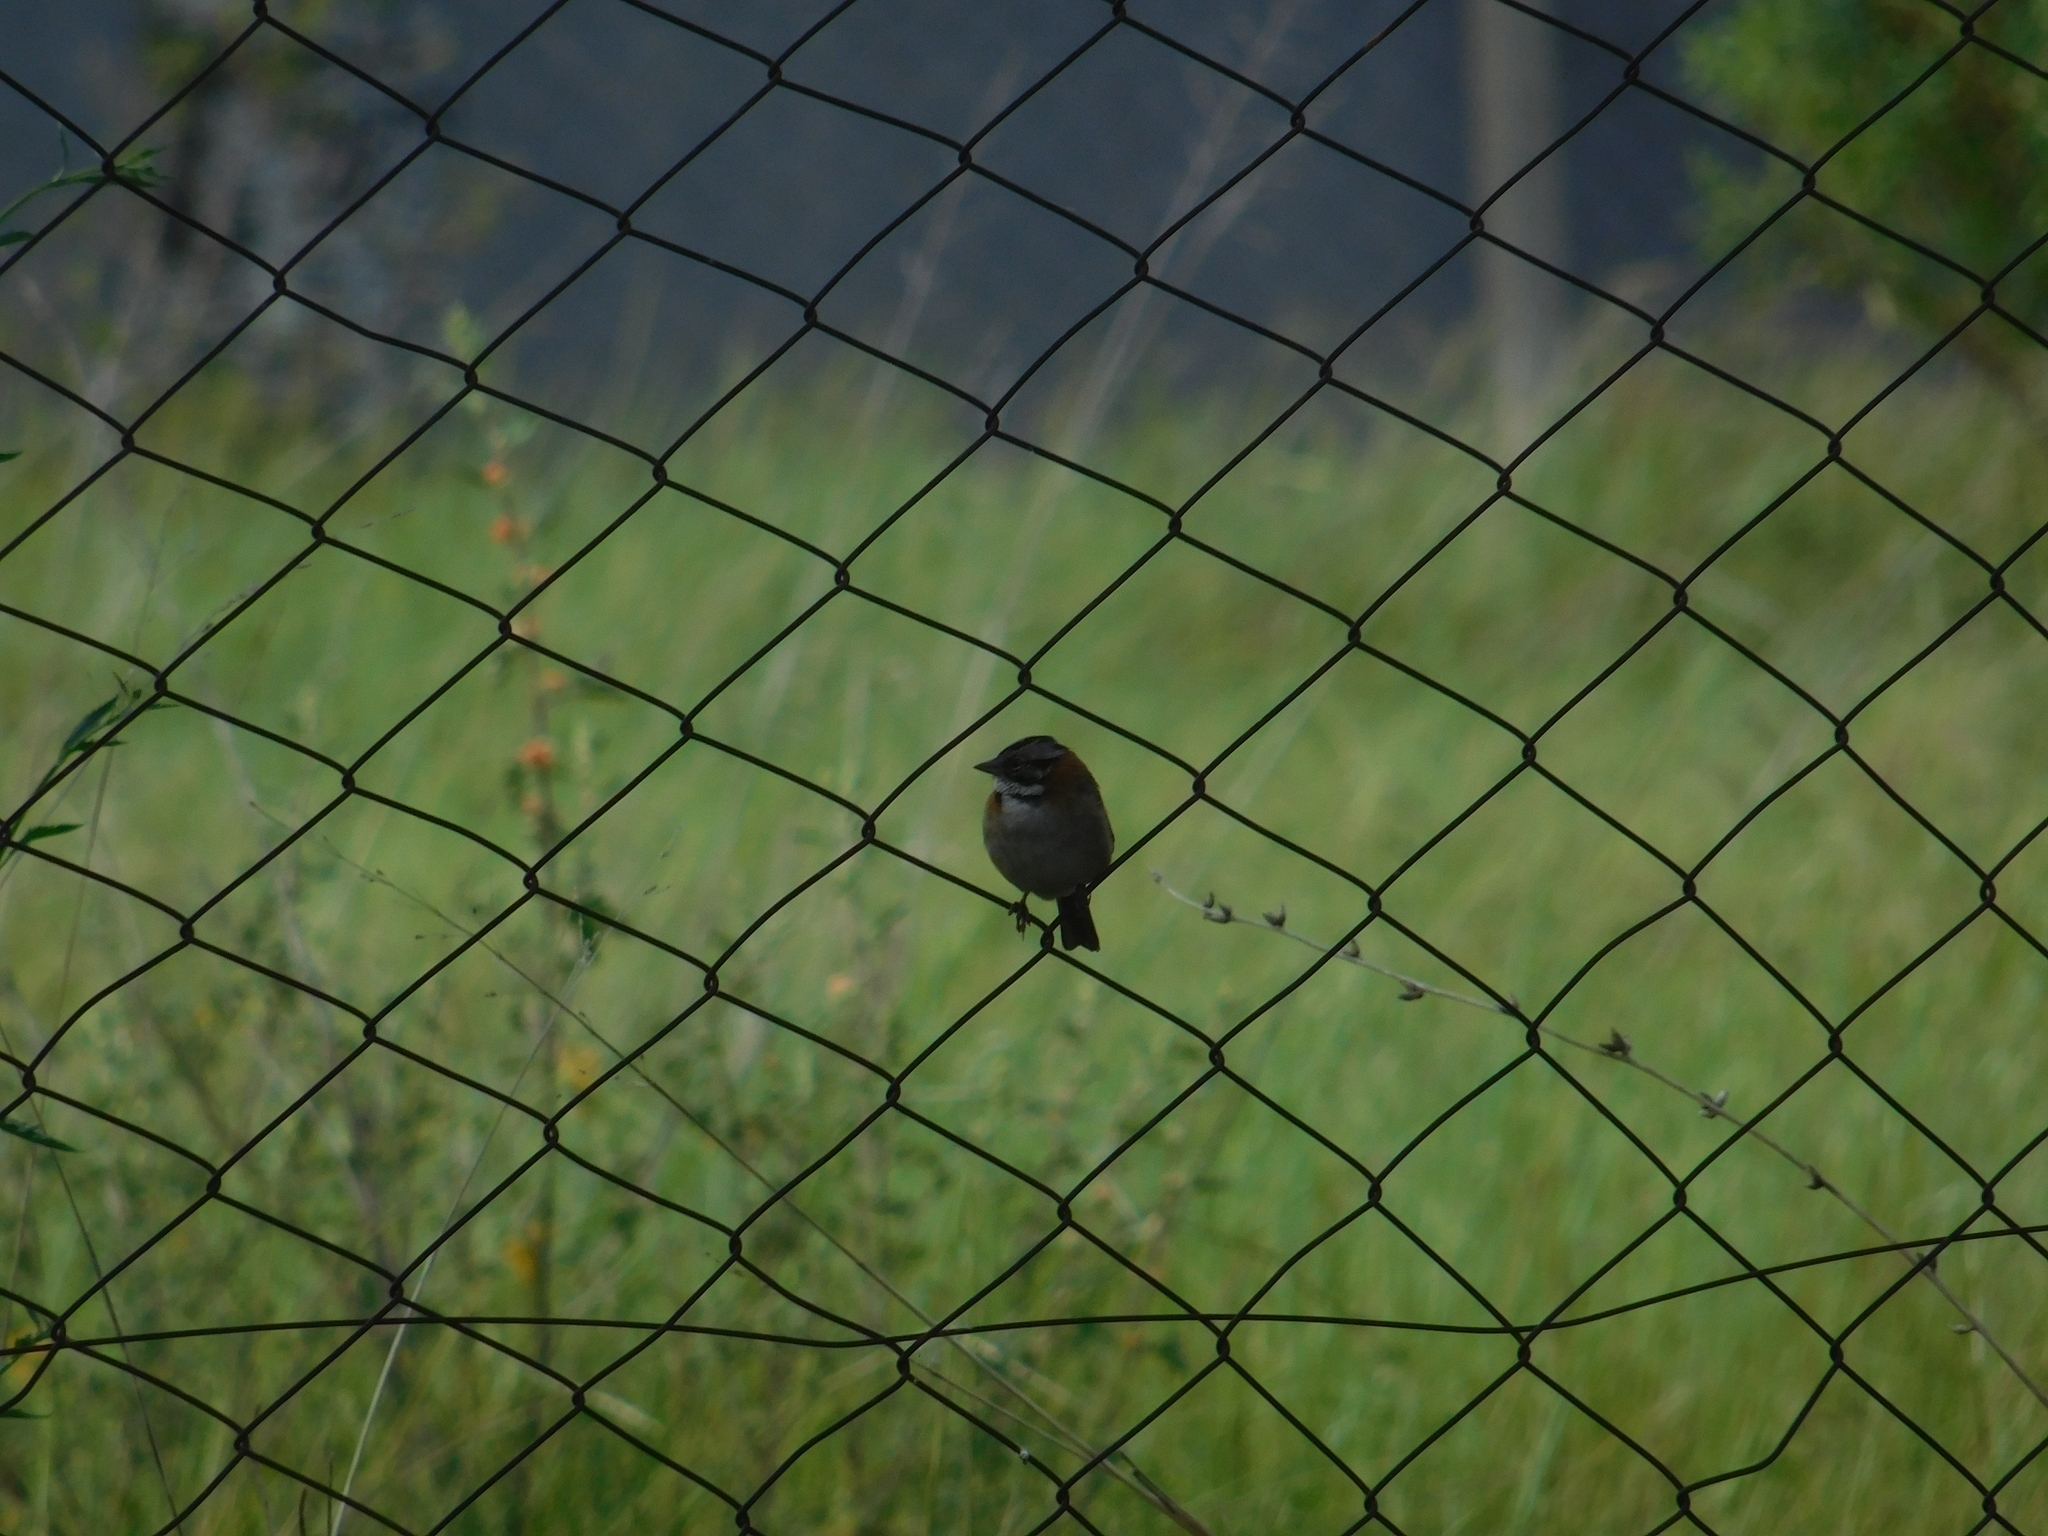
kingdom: Animalia
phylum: Chordata
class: Aves
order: Passeriformes
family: Passerellidae
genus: Zonotrichia
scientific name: Zonotrichia capensis
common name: Rufous-collared sparrow
